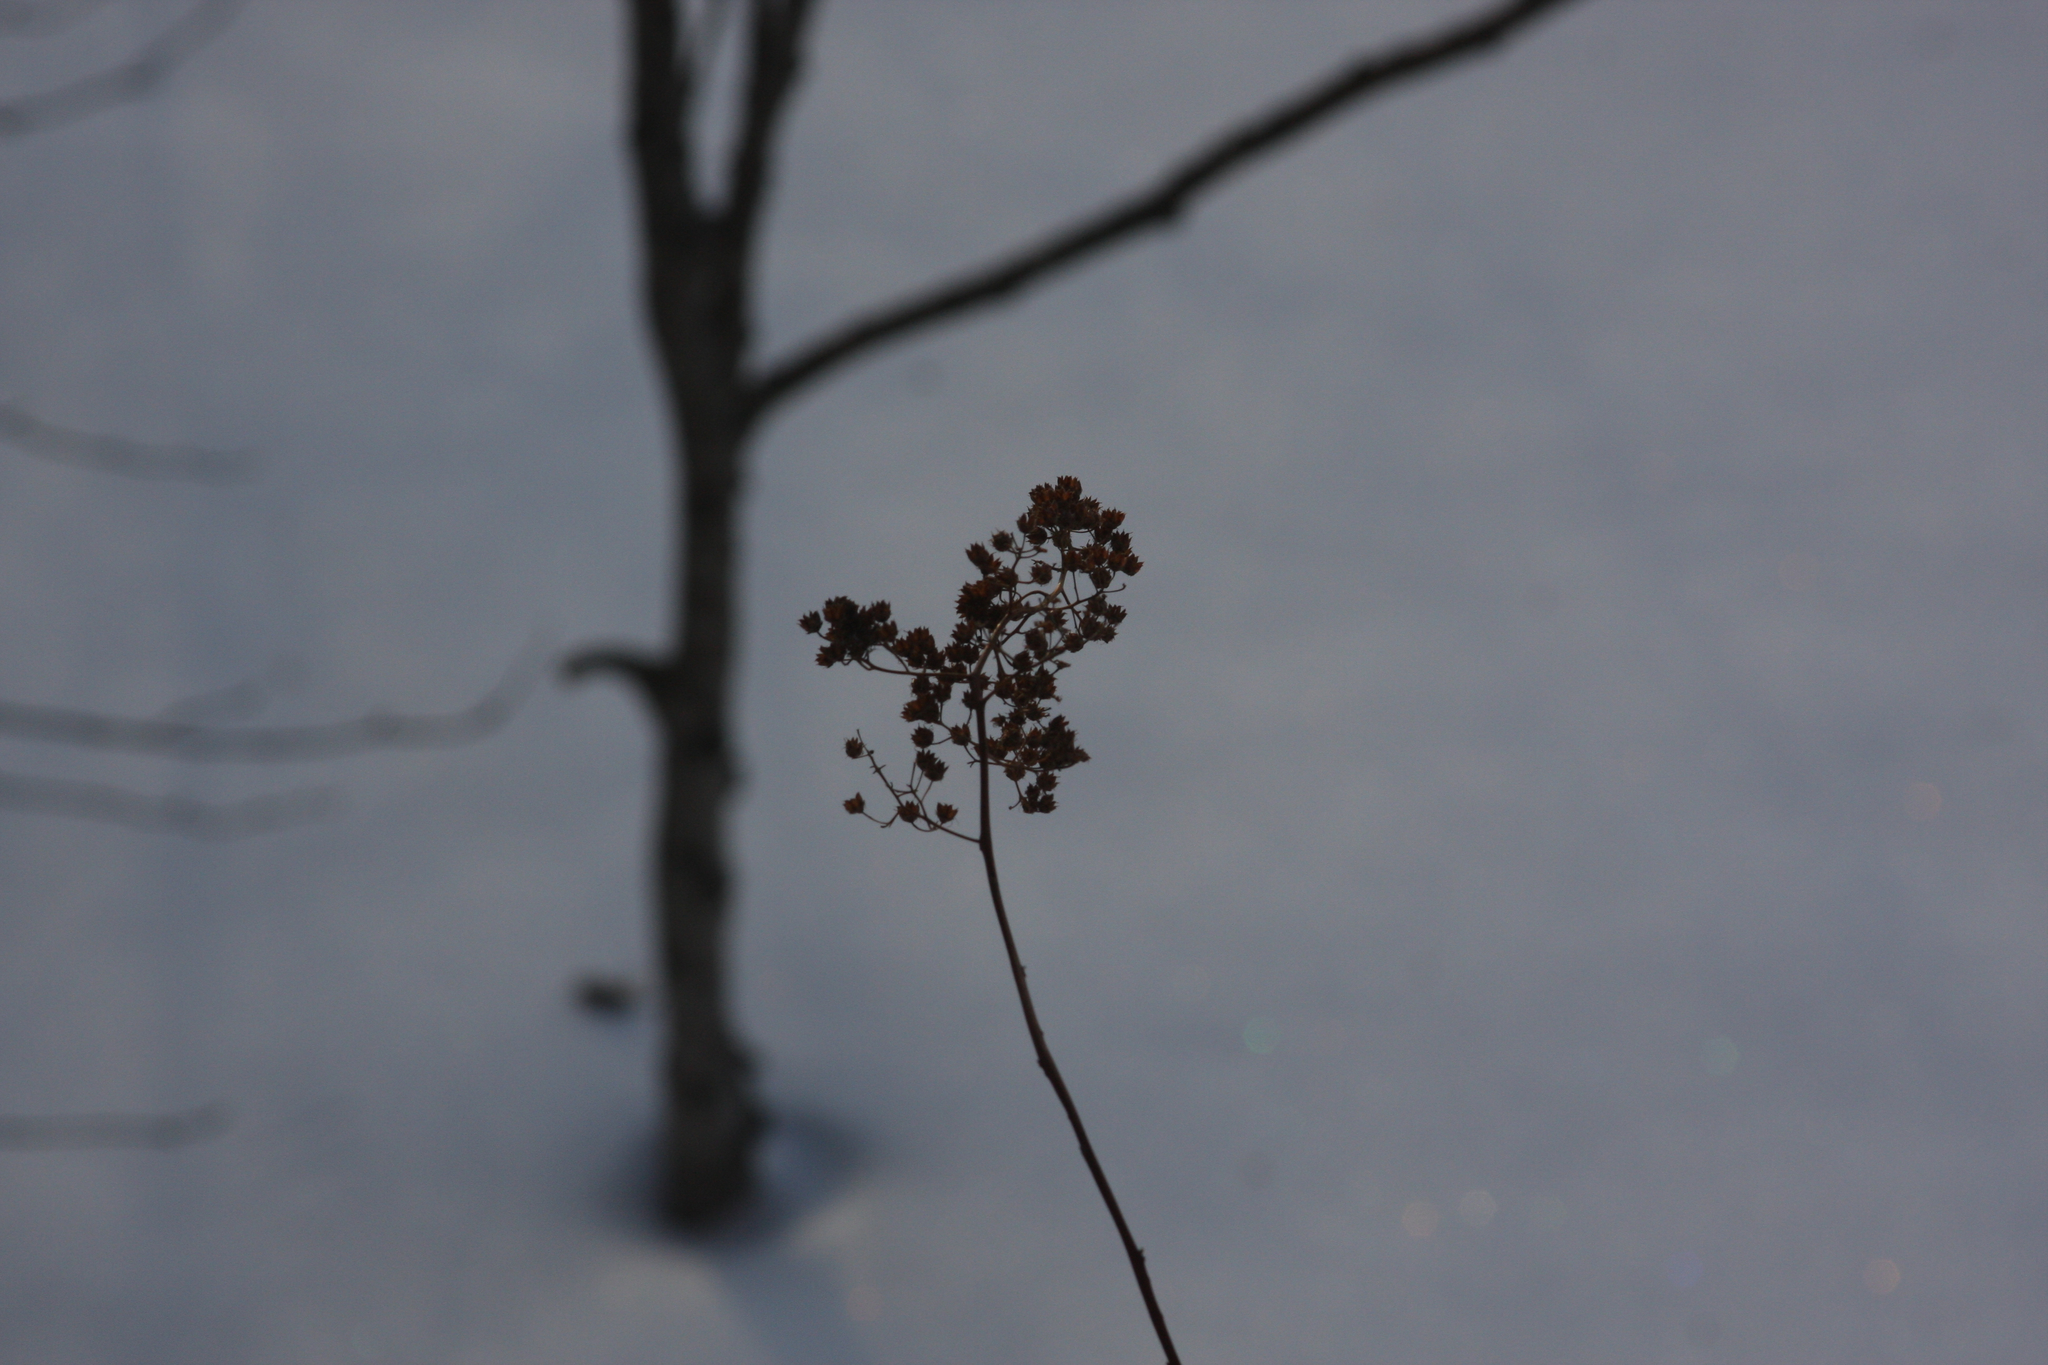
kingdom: Plantae
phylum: Tracheophyta
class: Magnoliopsida
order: Rosales
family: Rosaceae
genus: Spiraea
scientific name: Spiraea alba
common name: Pale bridewort
